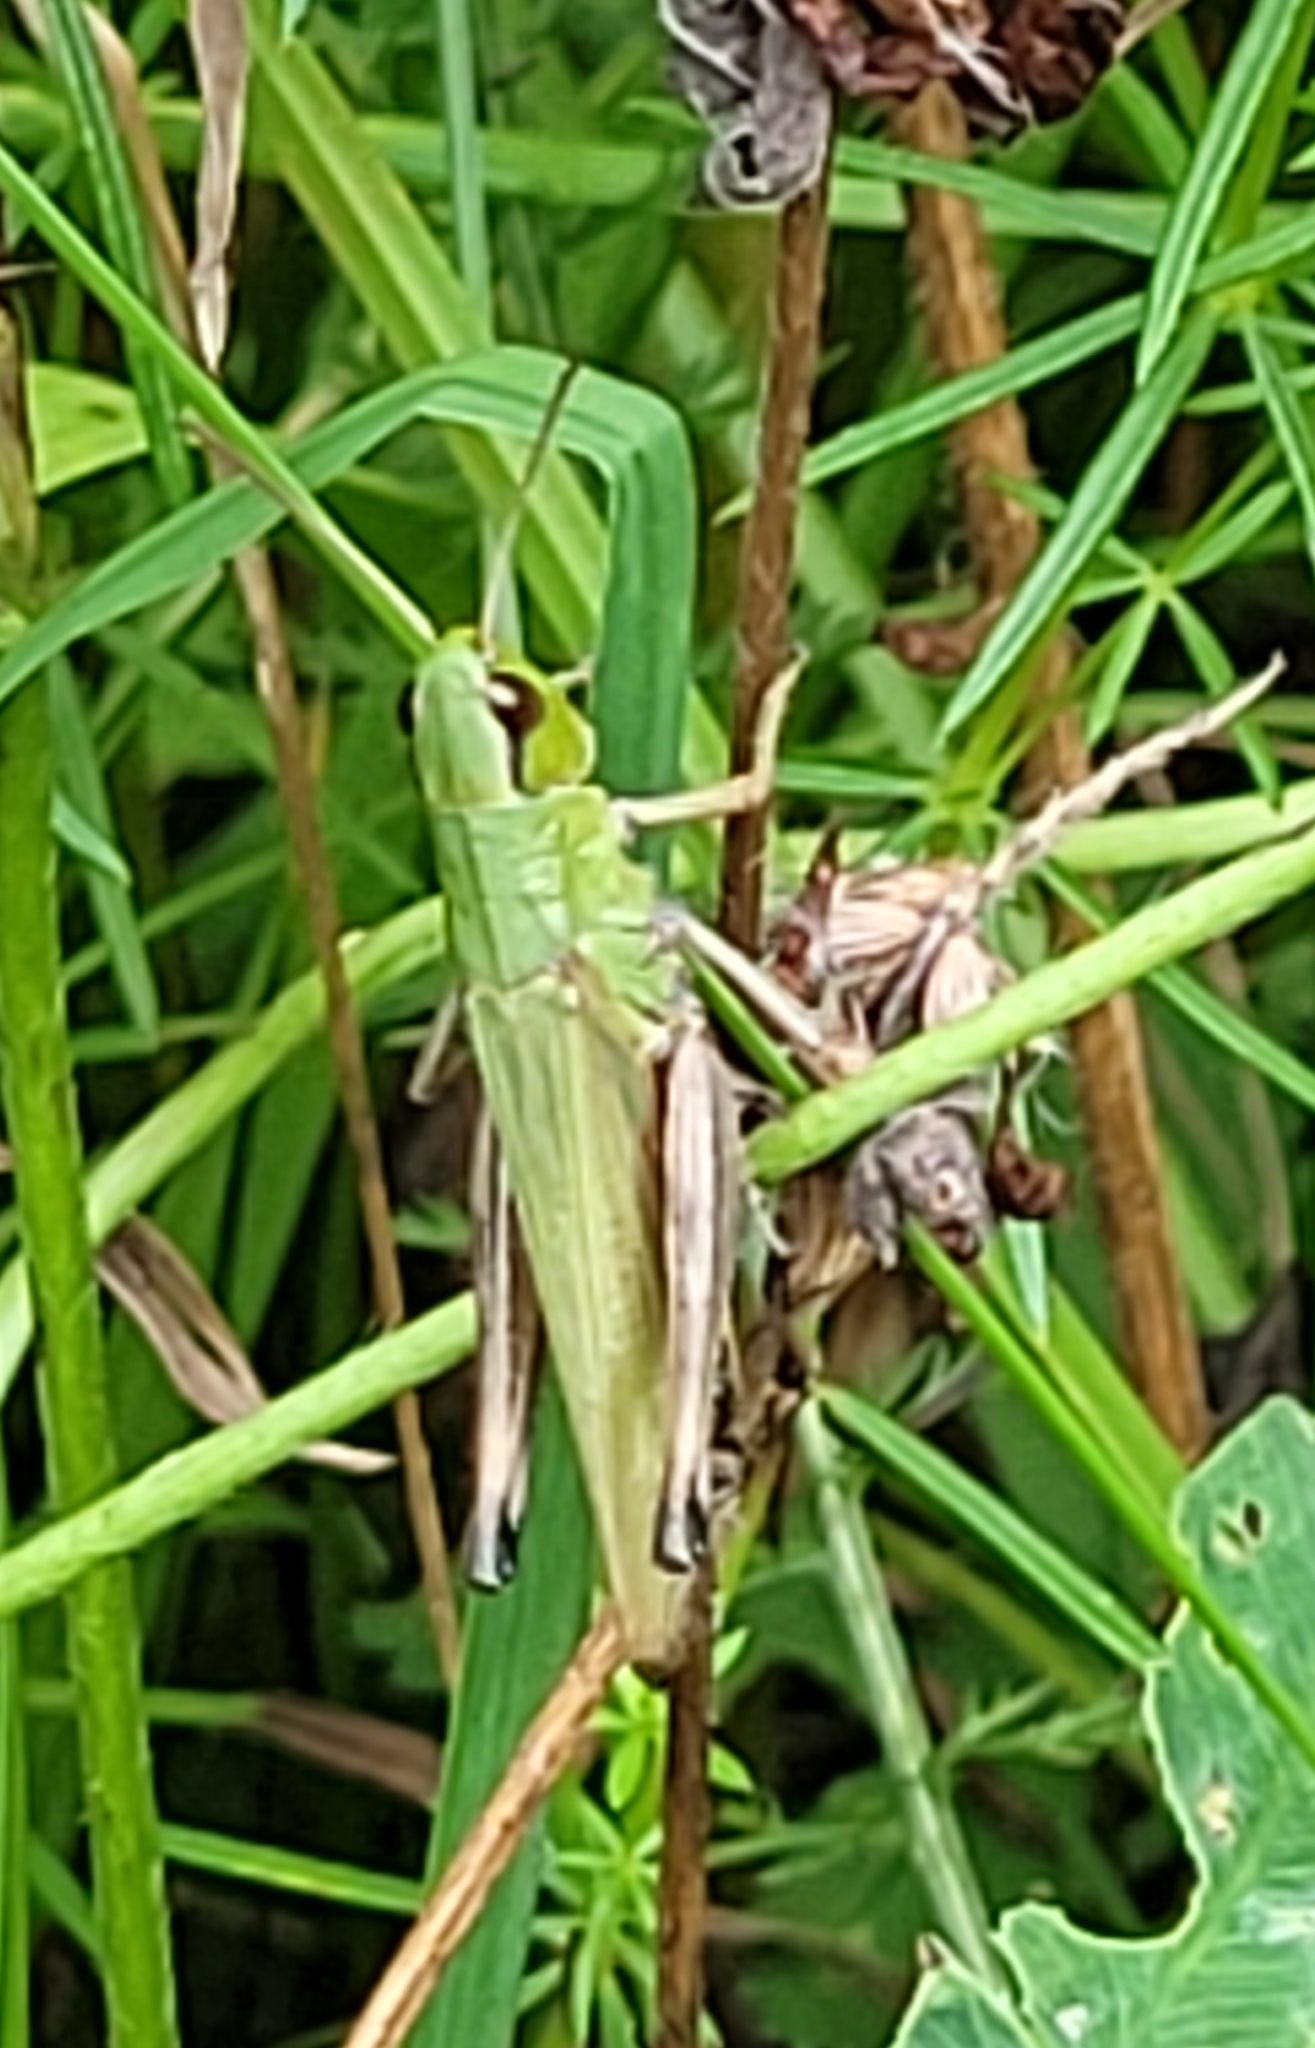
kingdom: Animalia
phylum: Arthropoda
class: Insecta
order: Orthoptera
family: Acrididae
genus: Pseudochorthippus
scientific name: Pseudochorthippus parallelus
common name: Meadow grasshopper
